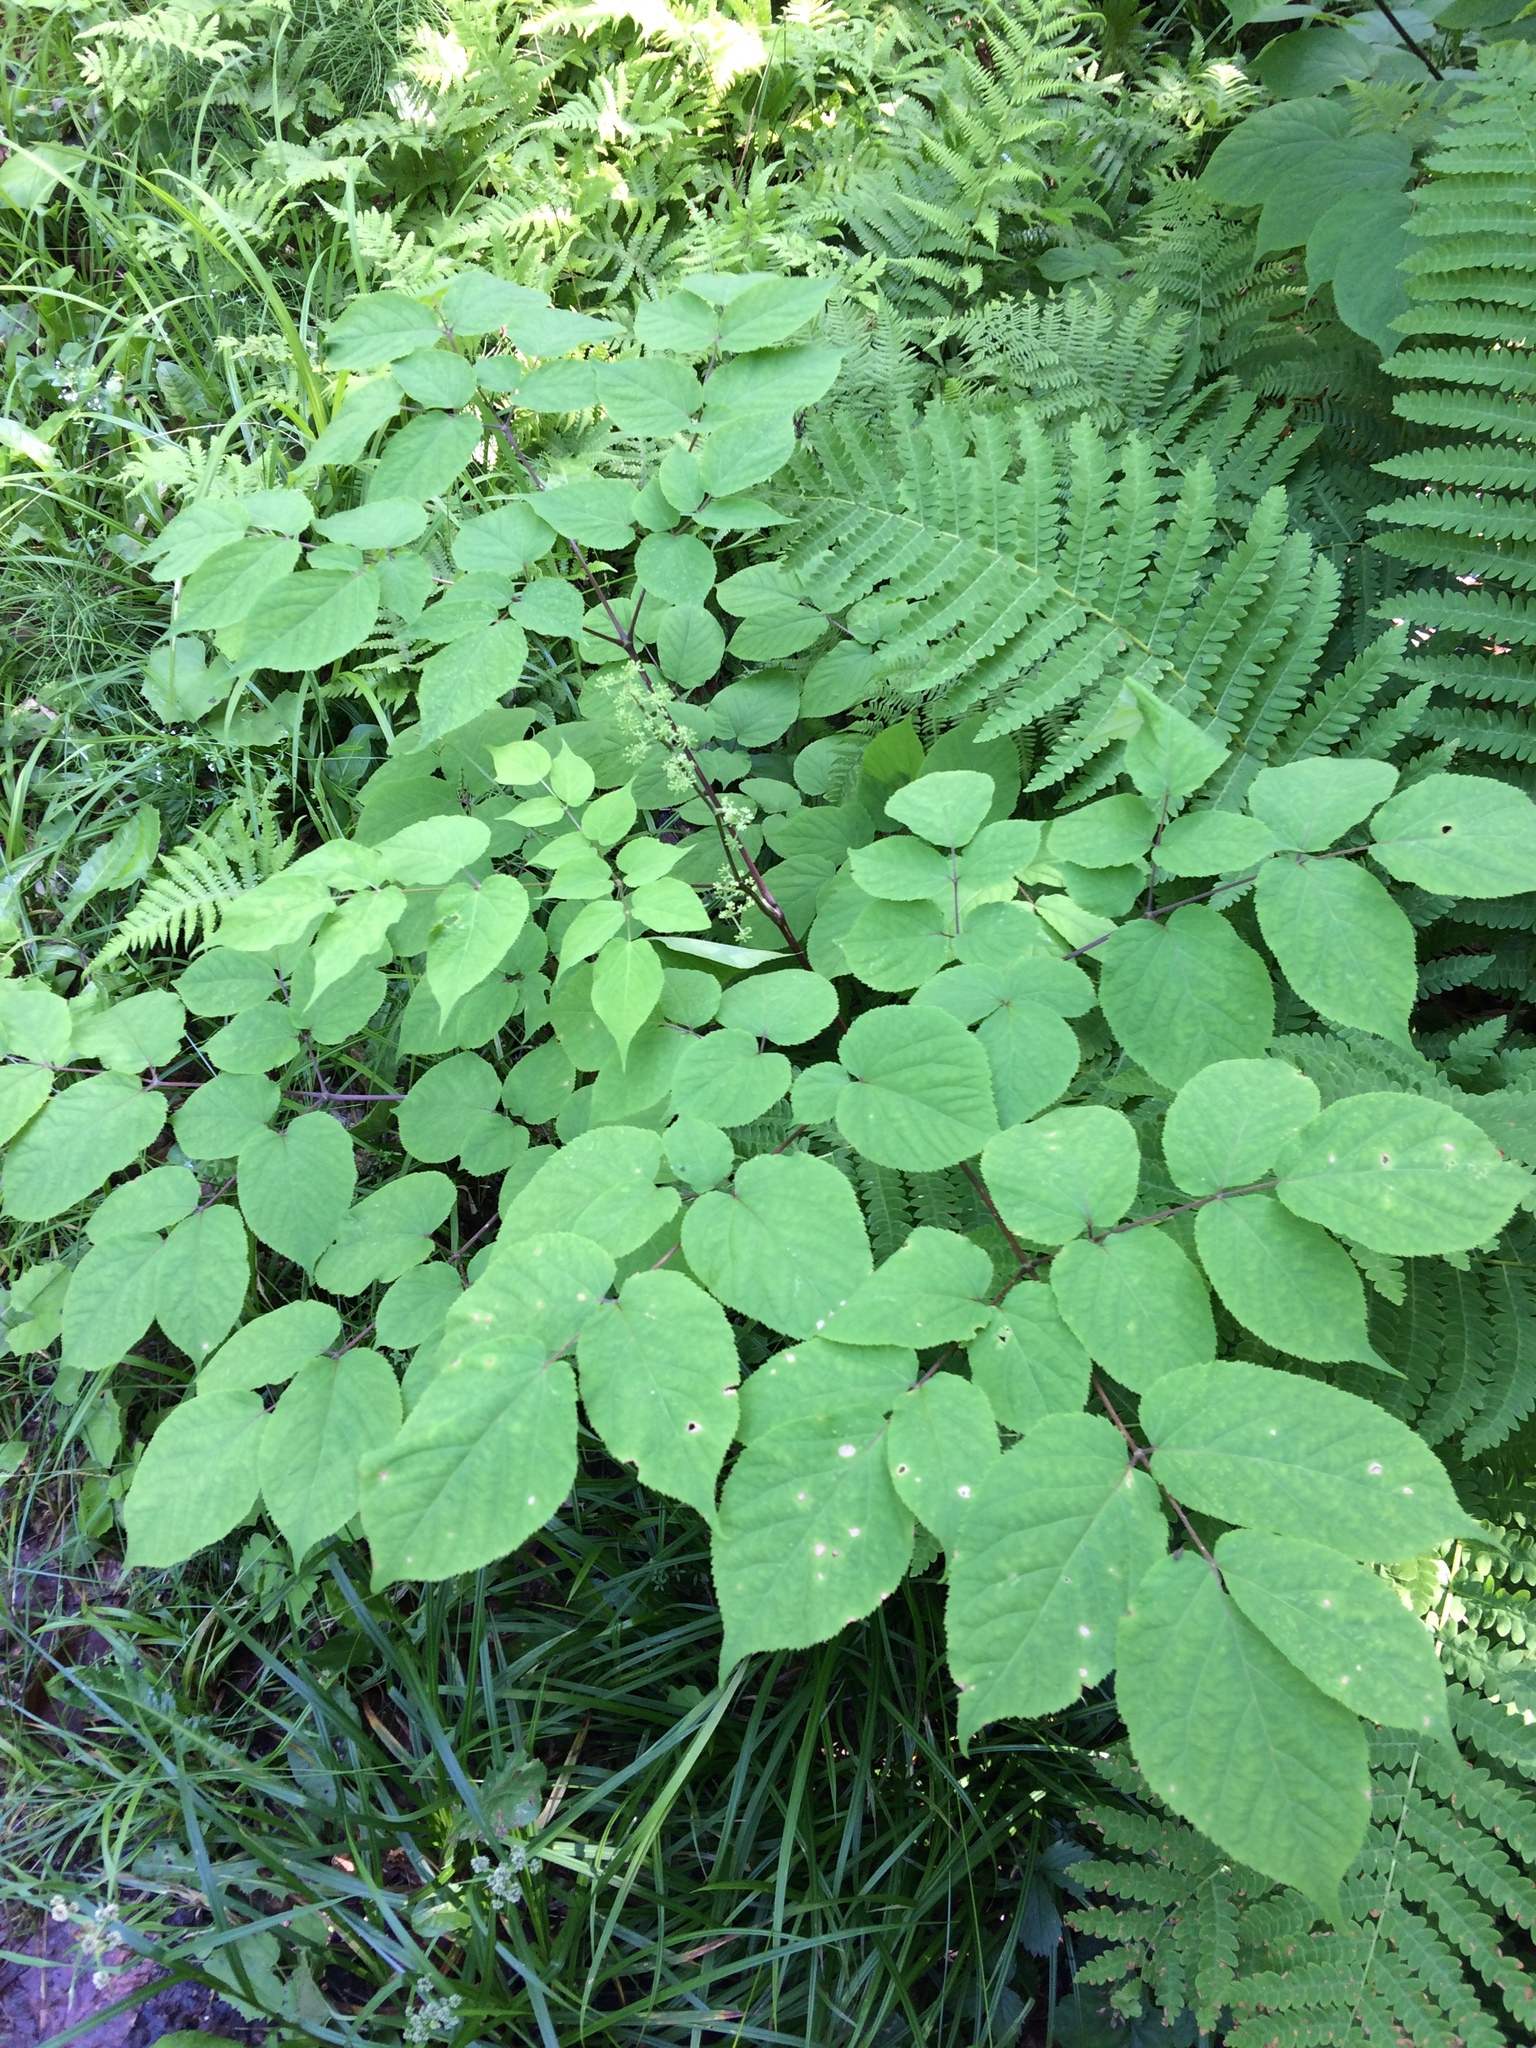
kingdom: Plantae
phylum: Tracheophyta
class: Magnoliopsida
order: Apiales
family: Araliaceae
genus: Aralia
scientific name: Aralia racemosa
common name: American-spikenard
